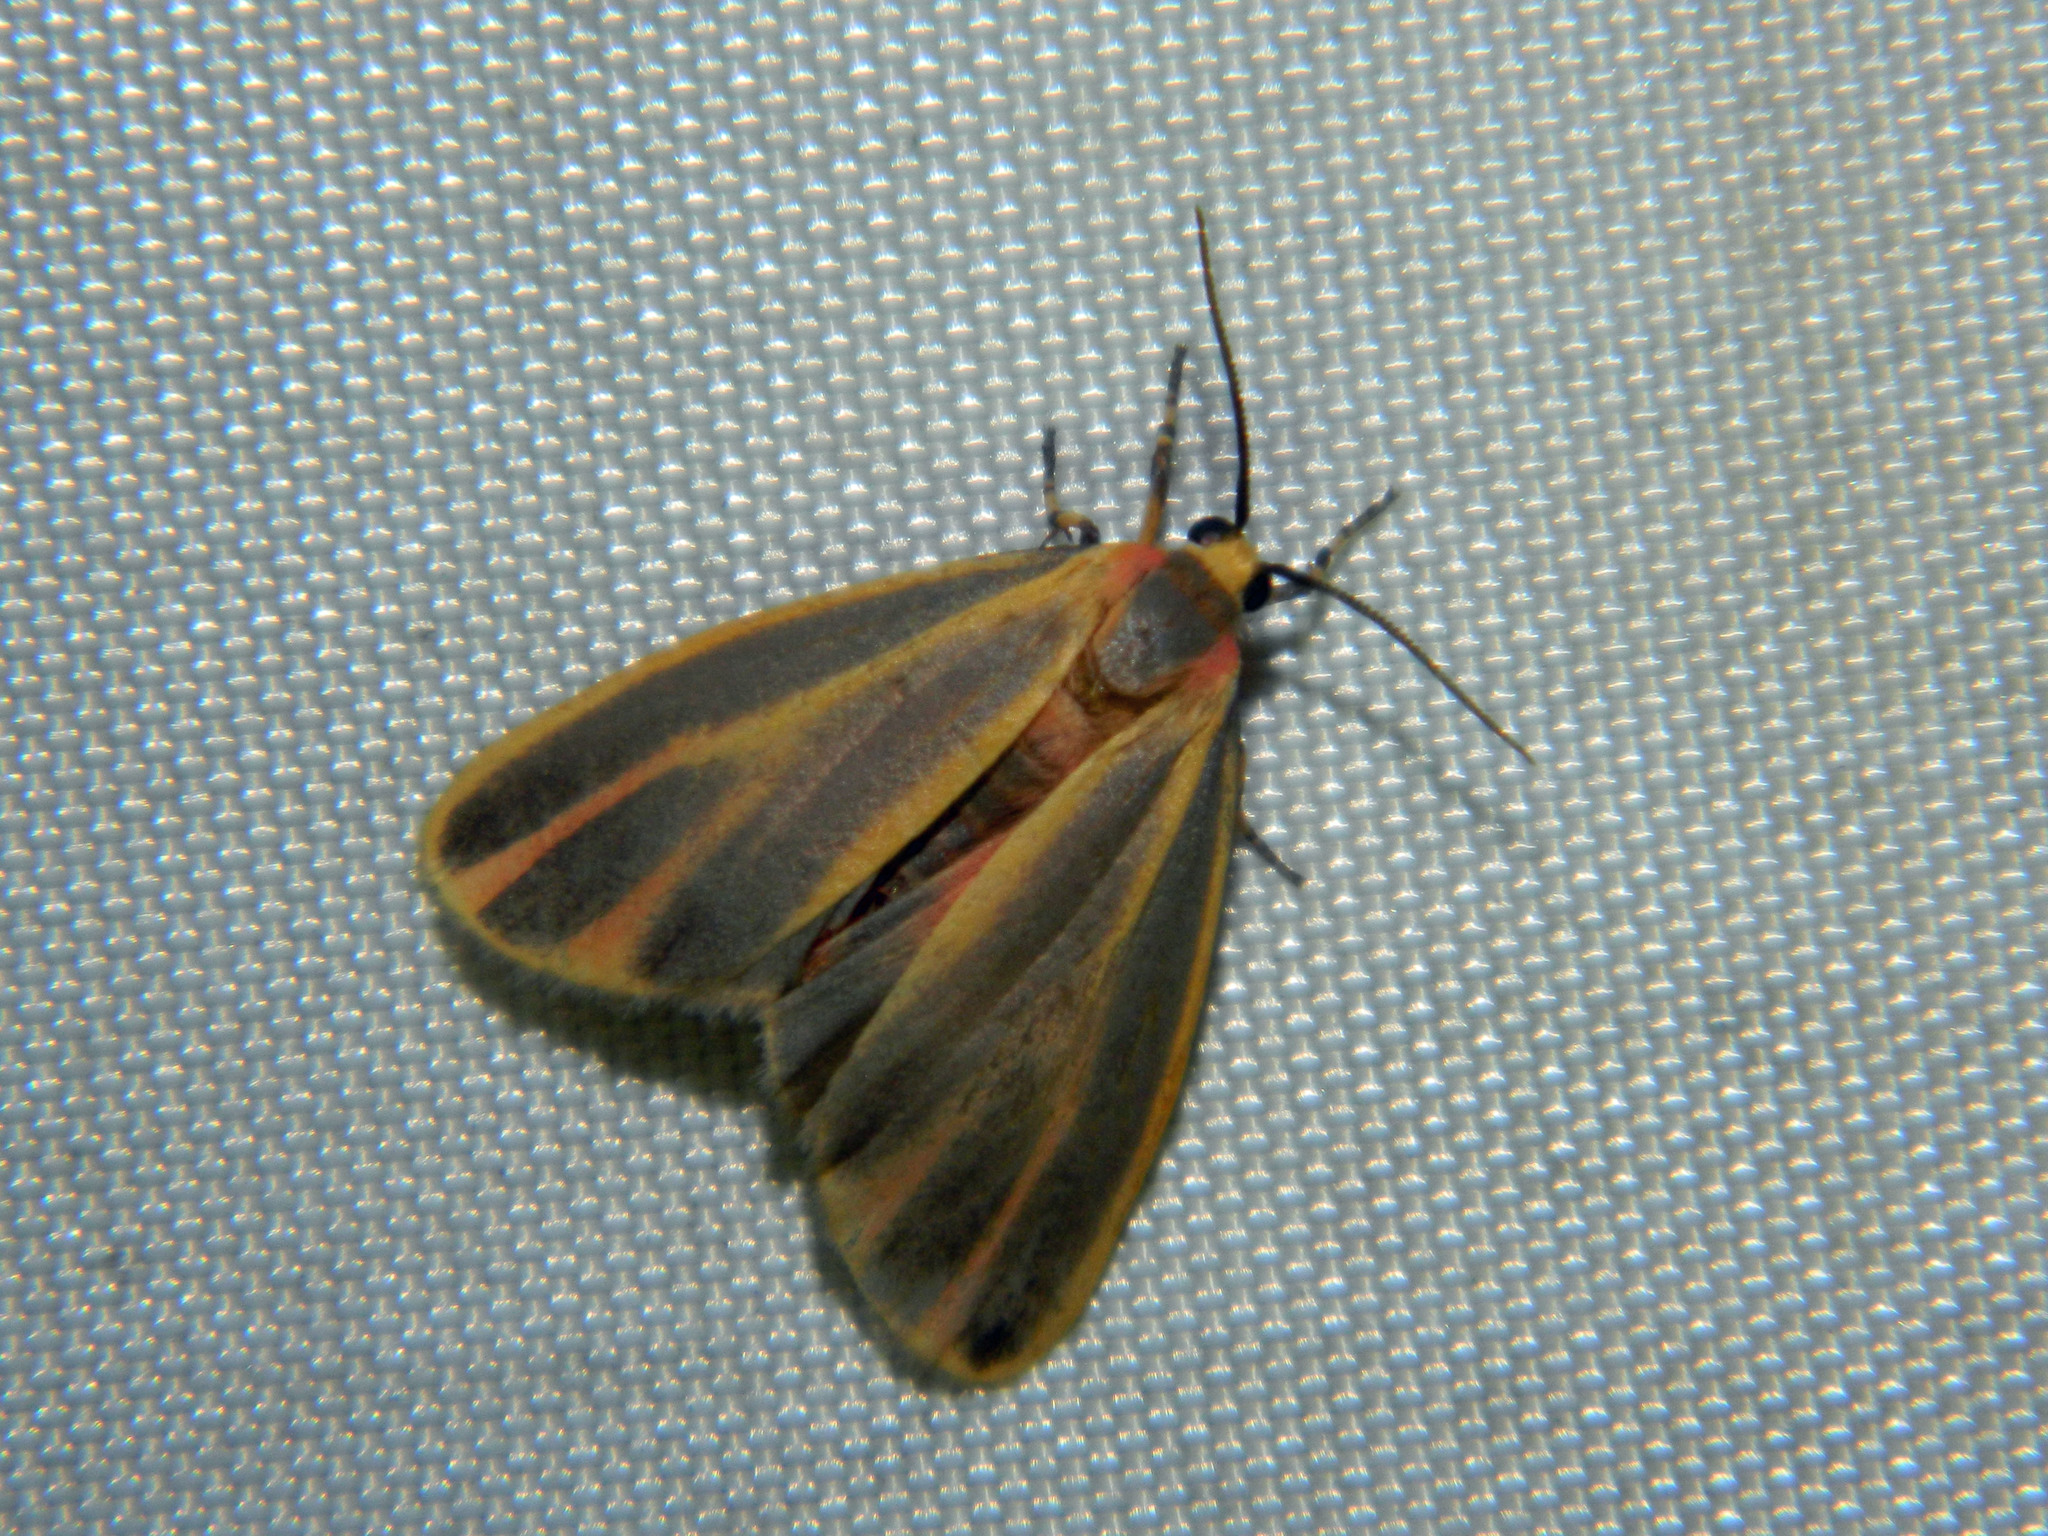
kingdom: Animalia
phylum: Arthropoda
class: Insecta
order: Lepidoptera
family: Erebidae
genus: Hypoprepia
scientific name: Hypoprepia fucosa
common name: Painted lichen moth
